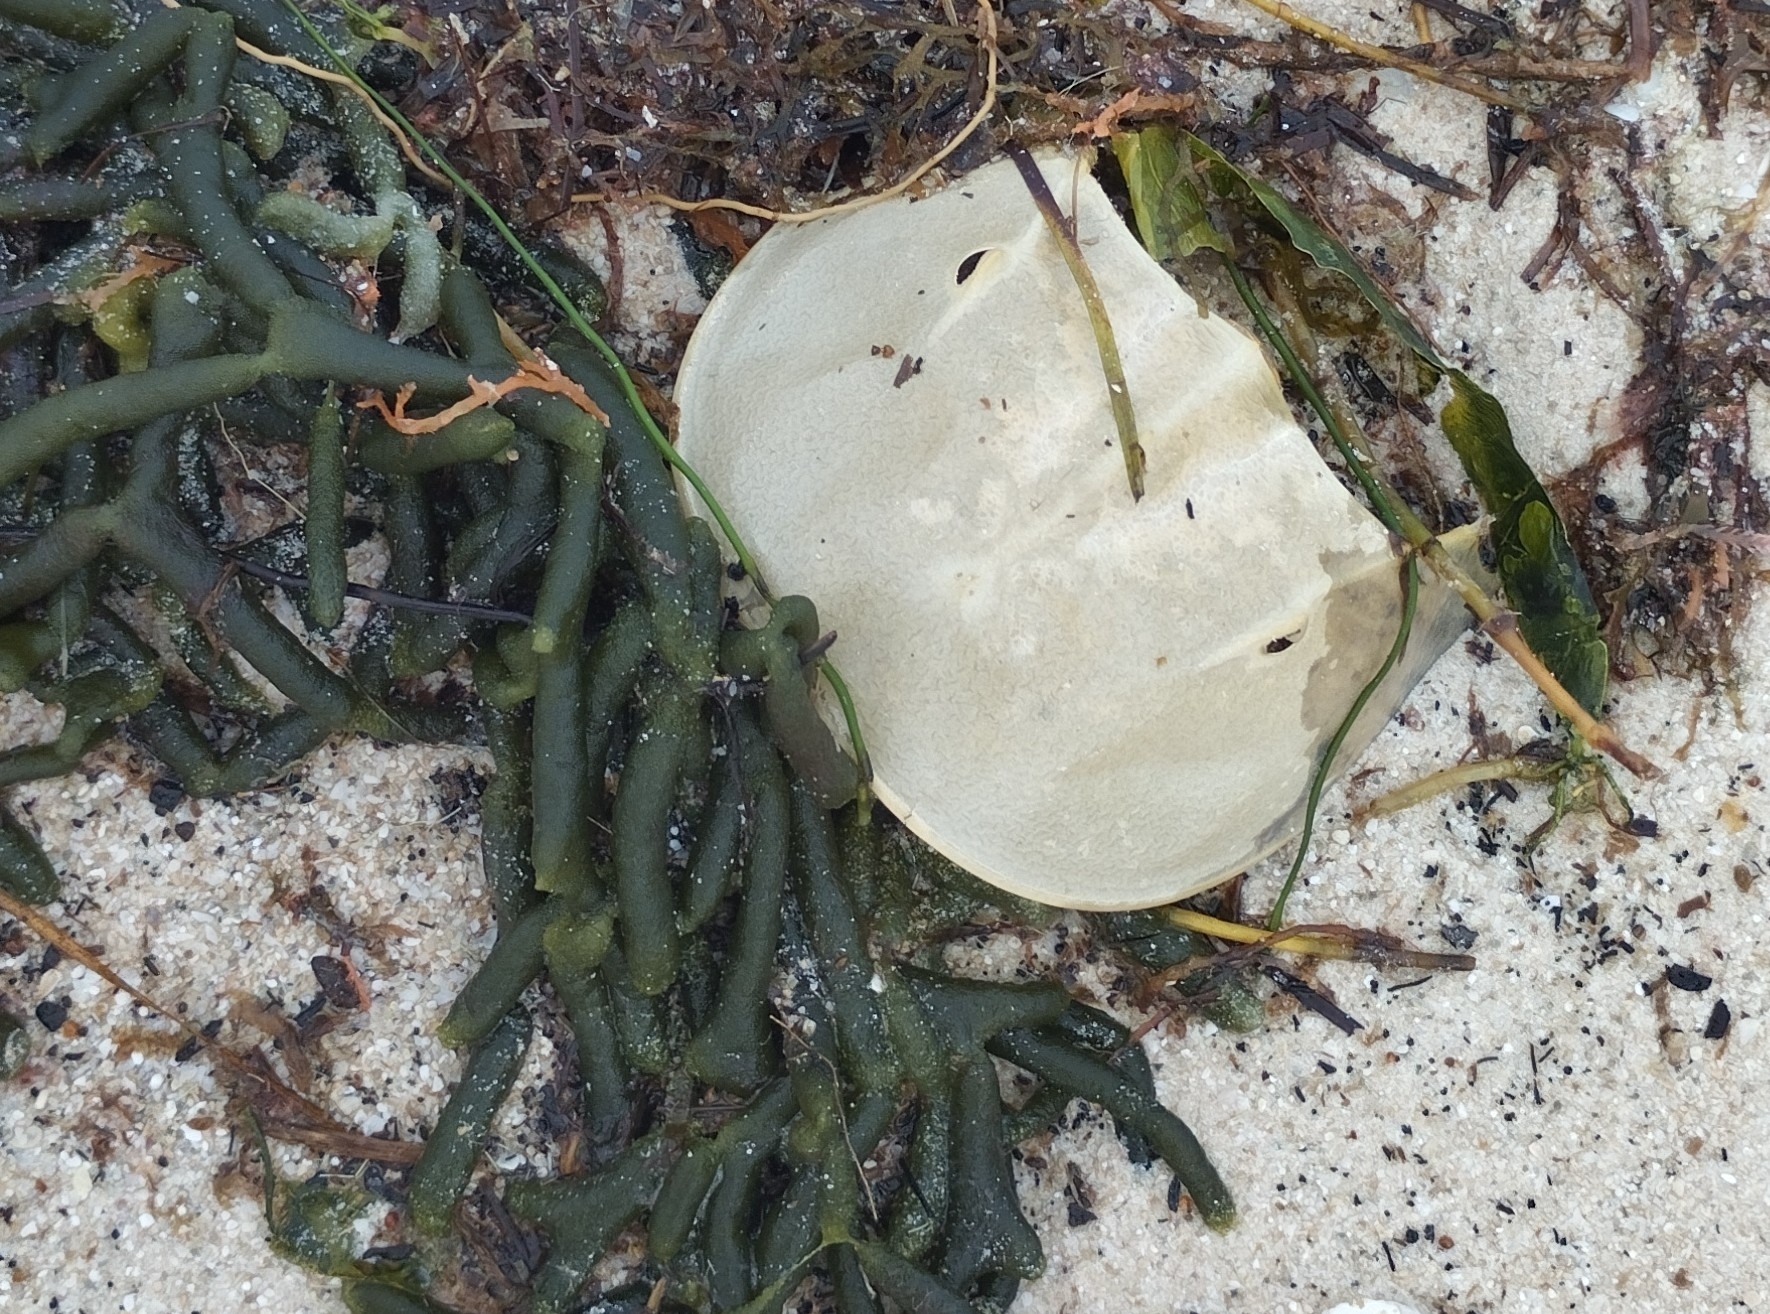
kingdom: Animalia
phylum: Arthropoda
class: Merostomata
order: Xiphosurida
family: Limulidae
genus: Limulus
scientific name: Limulus polyphemus
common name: Horseshoe crab
